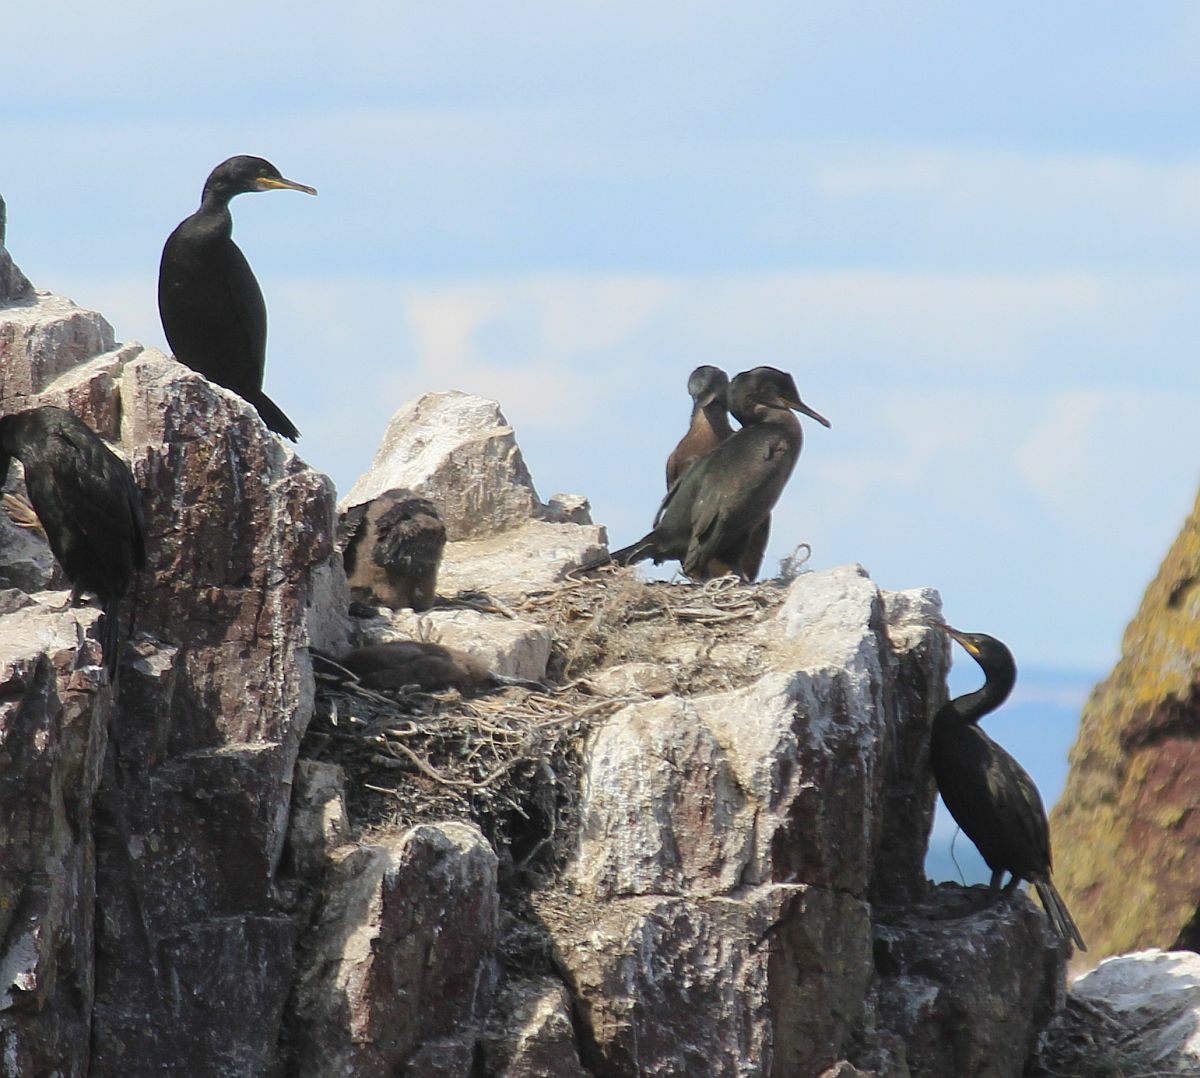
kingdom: Animalia
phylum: Chordata
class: Aves
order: Suliformes
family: Phalacrocoracidae
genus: Phalacrocorax
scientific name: Phalacrocorax aristotelis
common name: European shag
